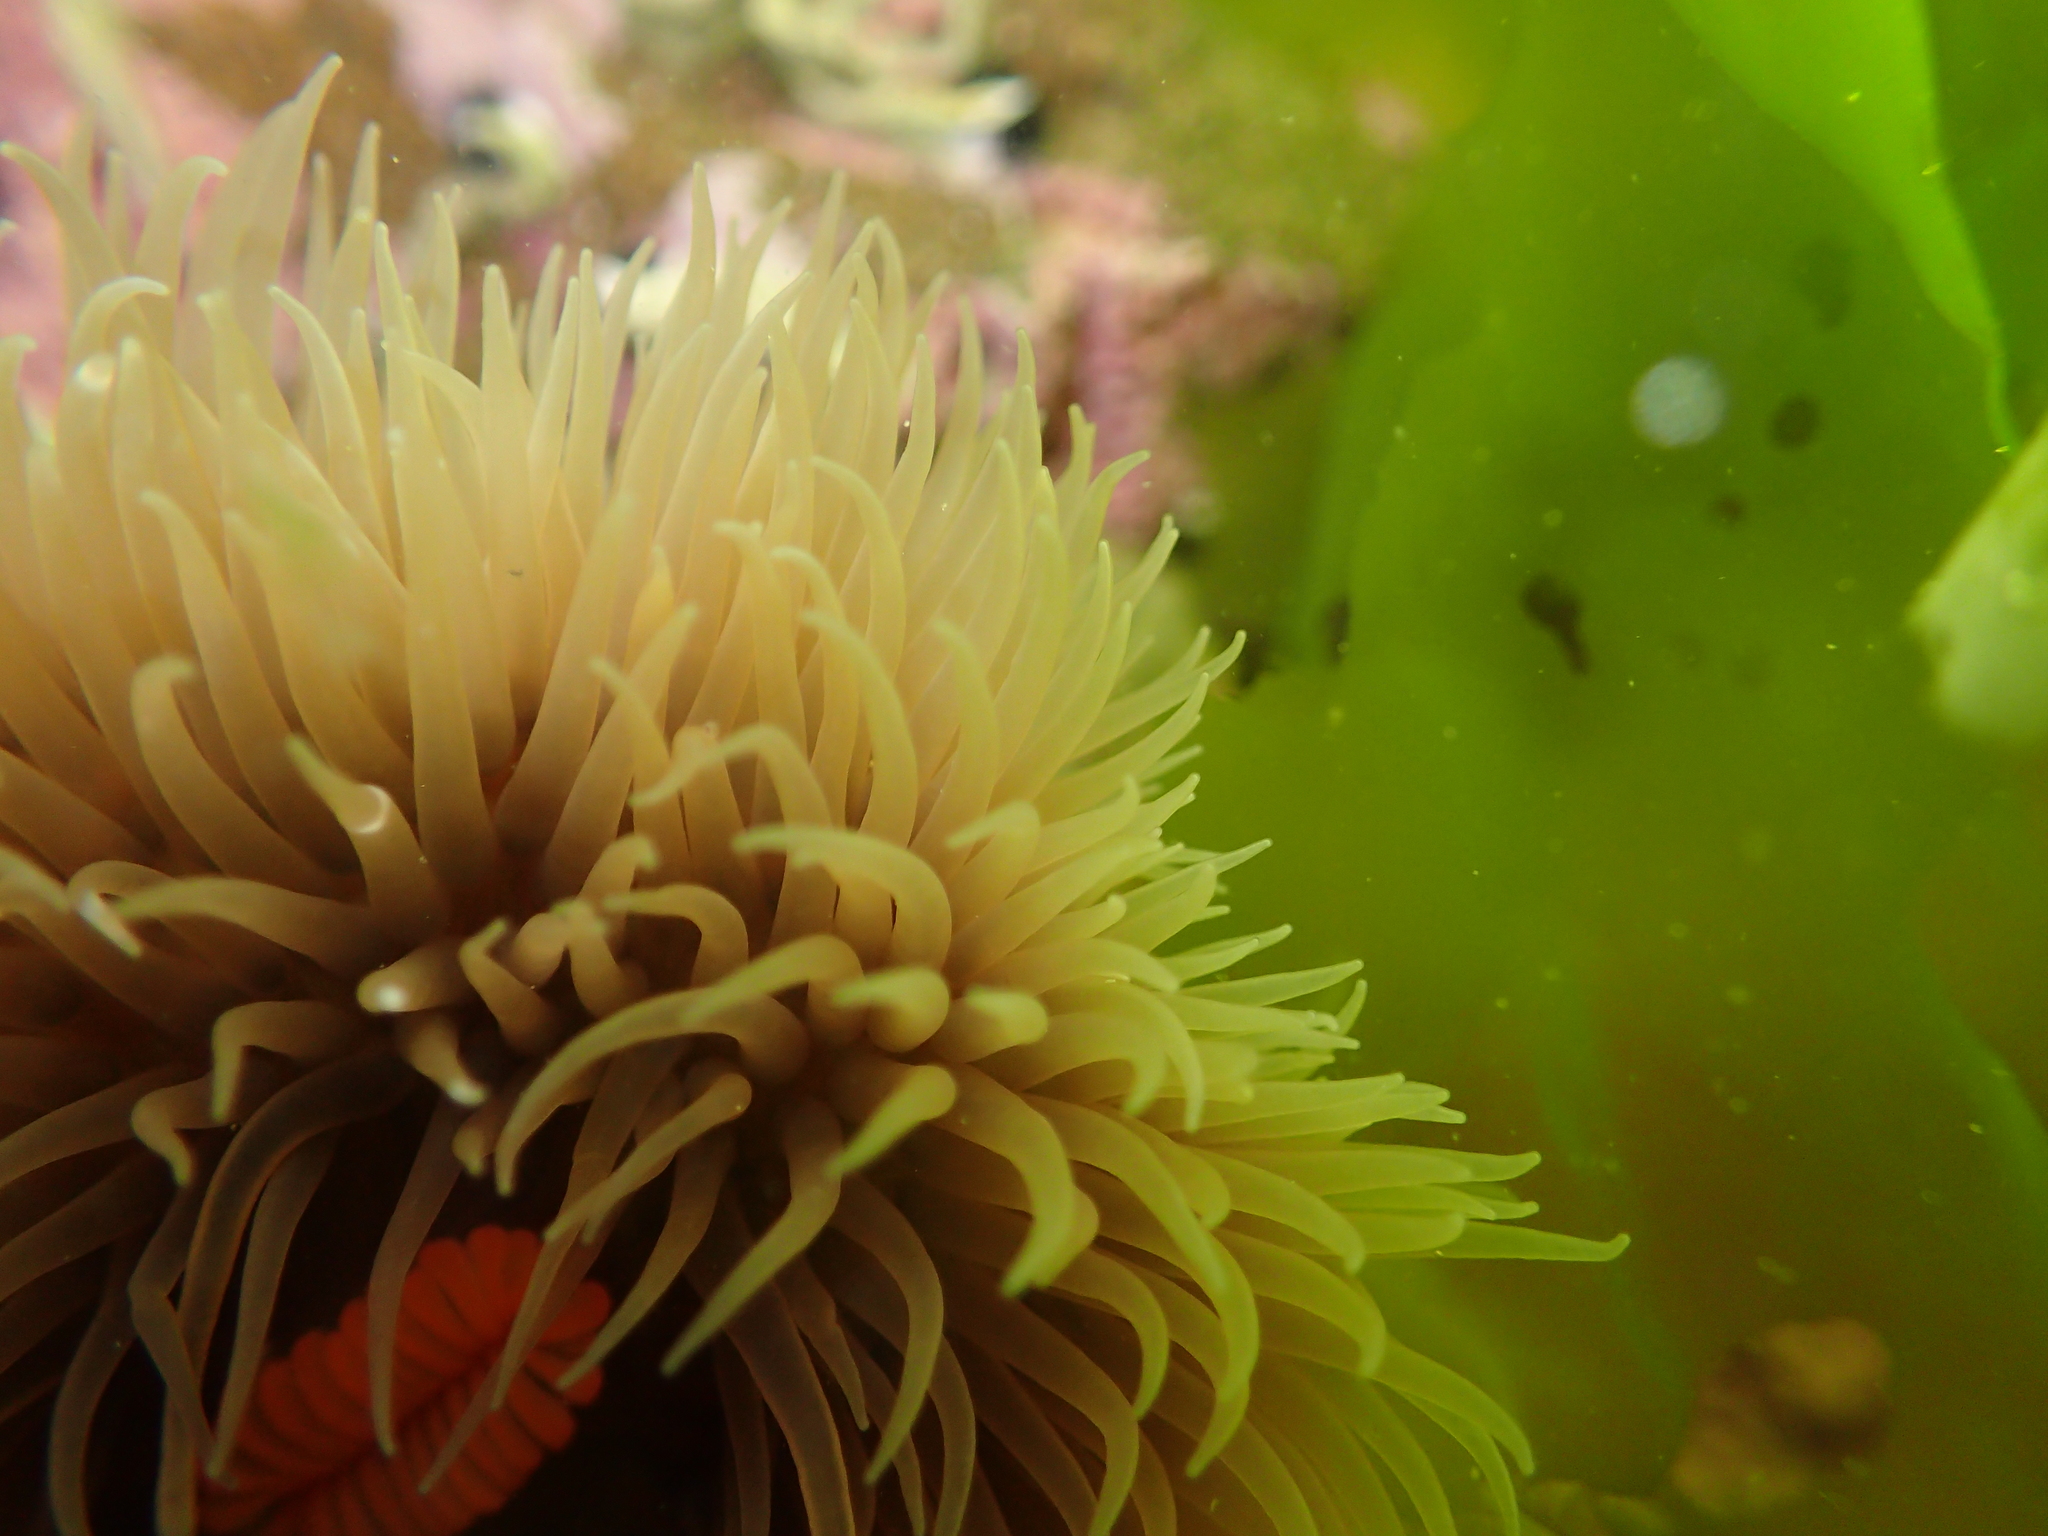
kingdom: Animalia
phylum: Cnidaria
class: Anthozoa
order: Actiniaria
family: Diadumenidae
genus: Diadumene
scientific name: Diadumene neozelanica
